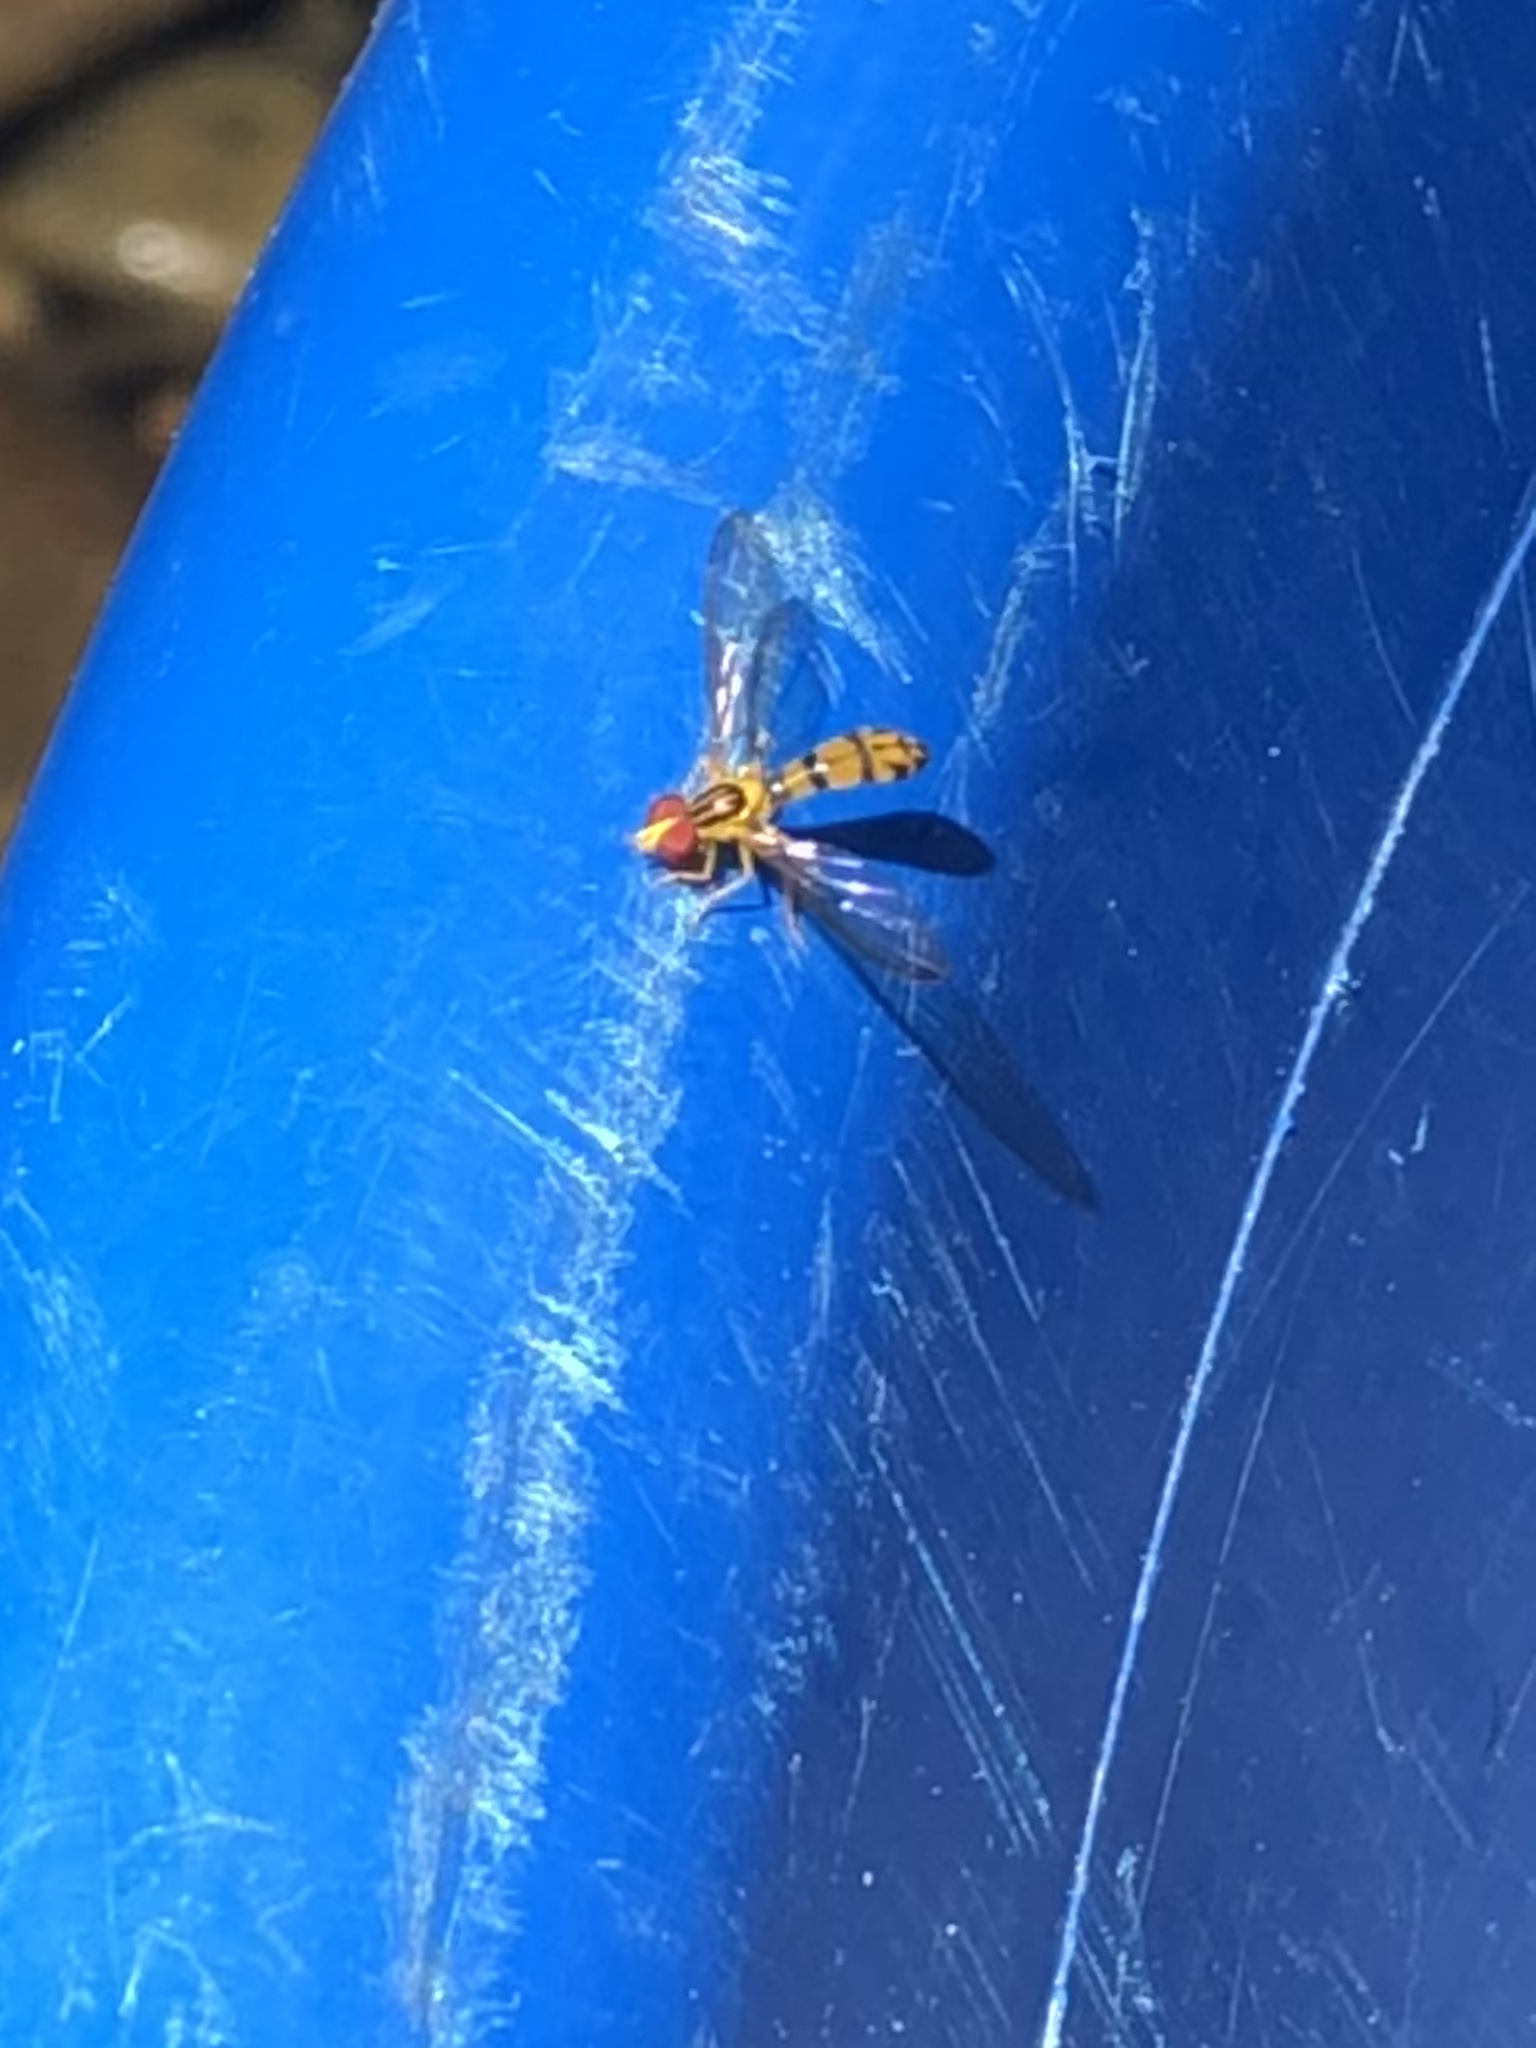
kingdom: Animalia
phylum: Arthropoda
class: Insecta
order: Diptera
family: Syrphidae
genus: Nuntianus
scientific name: Nuntianus croceus
